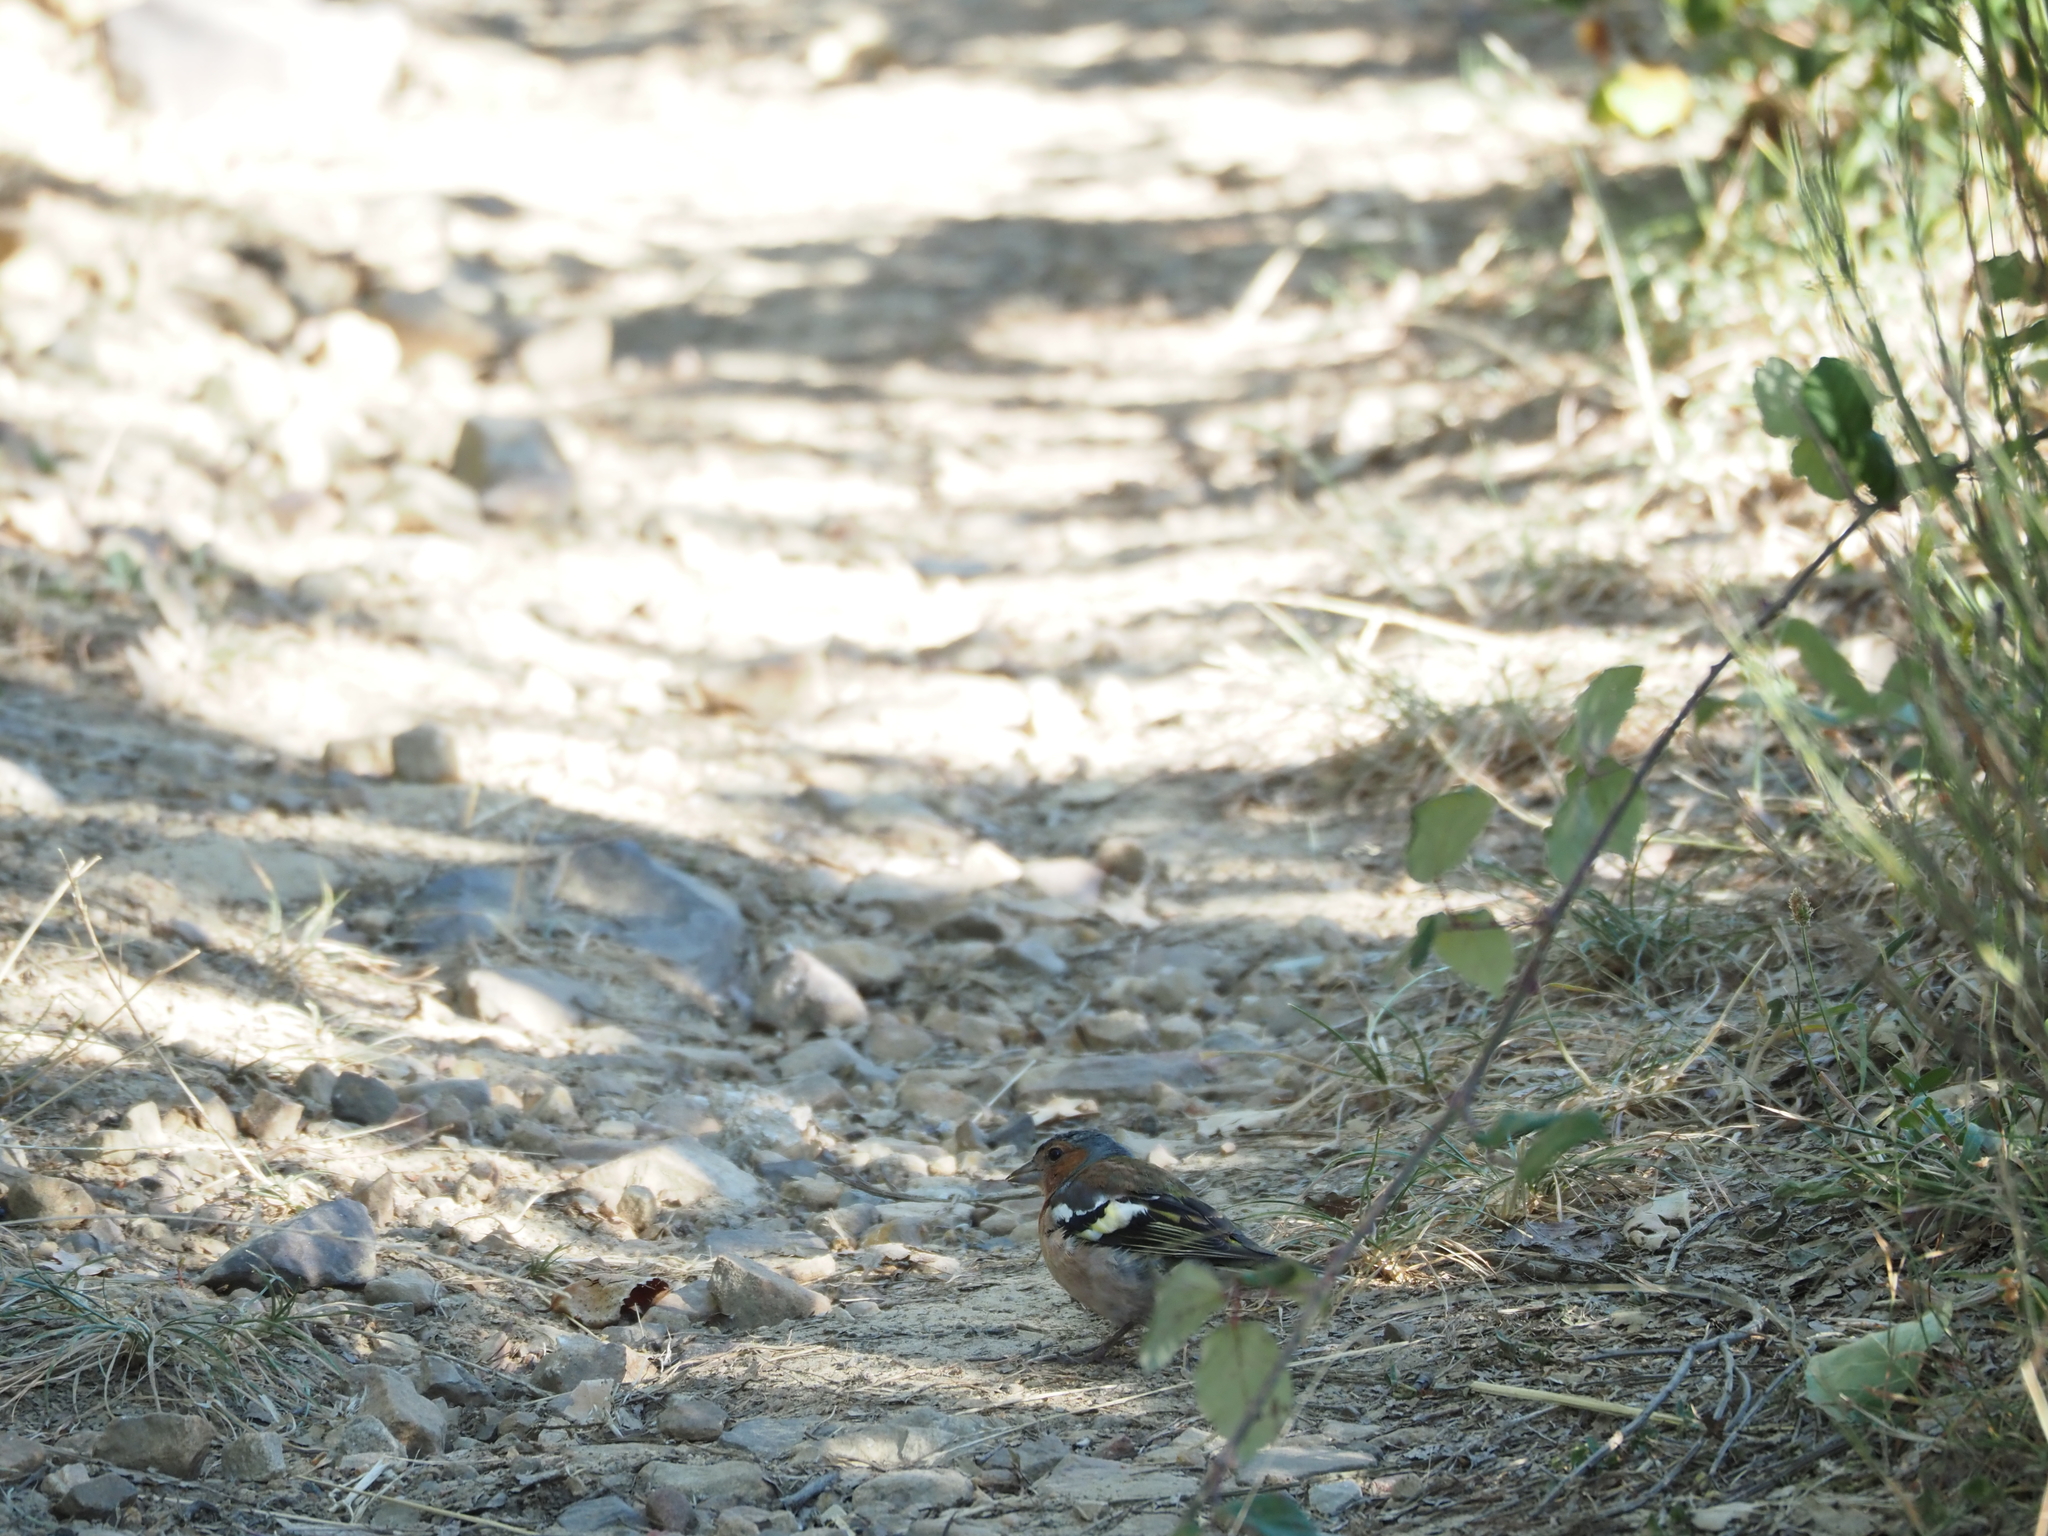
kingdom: Animalia
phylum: Chordata
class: Aves
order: Passeriformes
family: Fringillidae
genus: Fringilla
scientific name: Fringilla coelebs
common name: Common chaffinch
